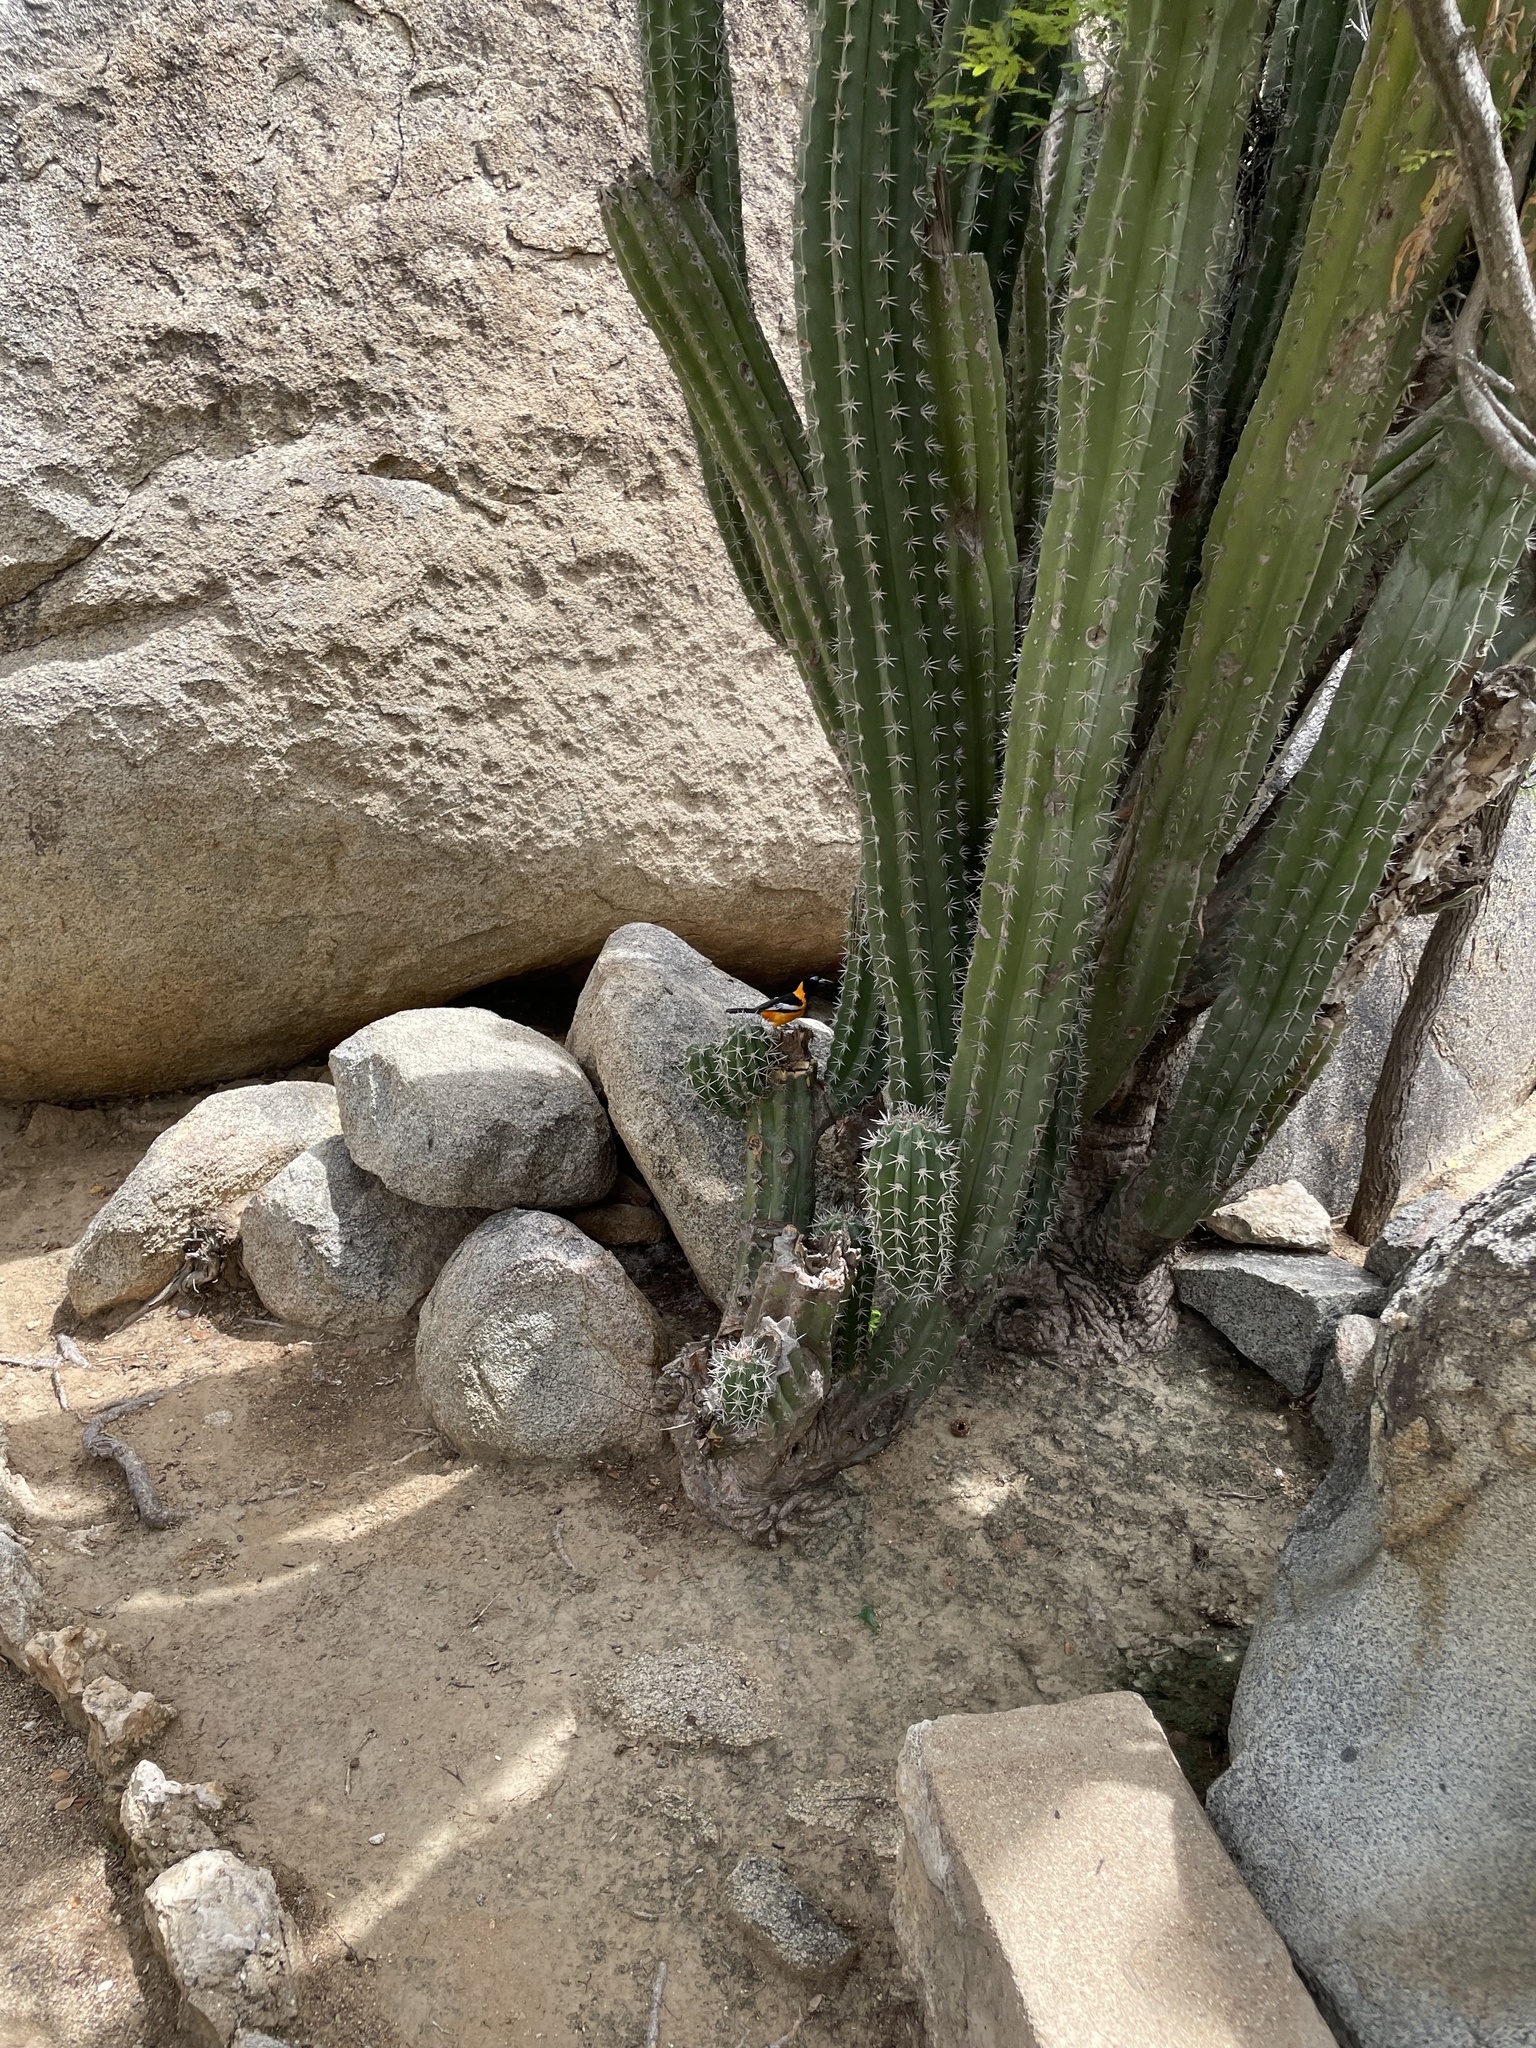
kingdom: Plantae
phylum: Tracheophyta
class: Magnoliopsida
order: Caryophyllales
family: Cactaceae
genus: Stenocereus
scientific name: Stenocereus griseus
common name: Tall candelabra cactus
